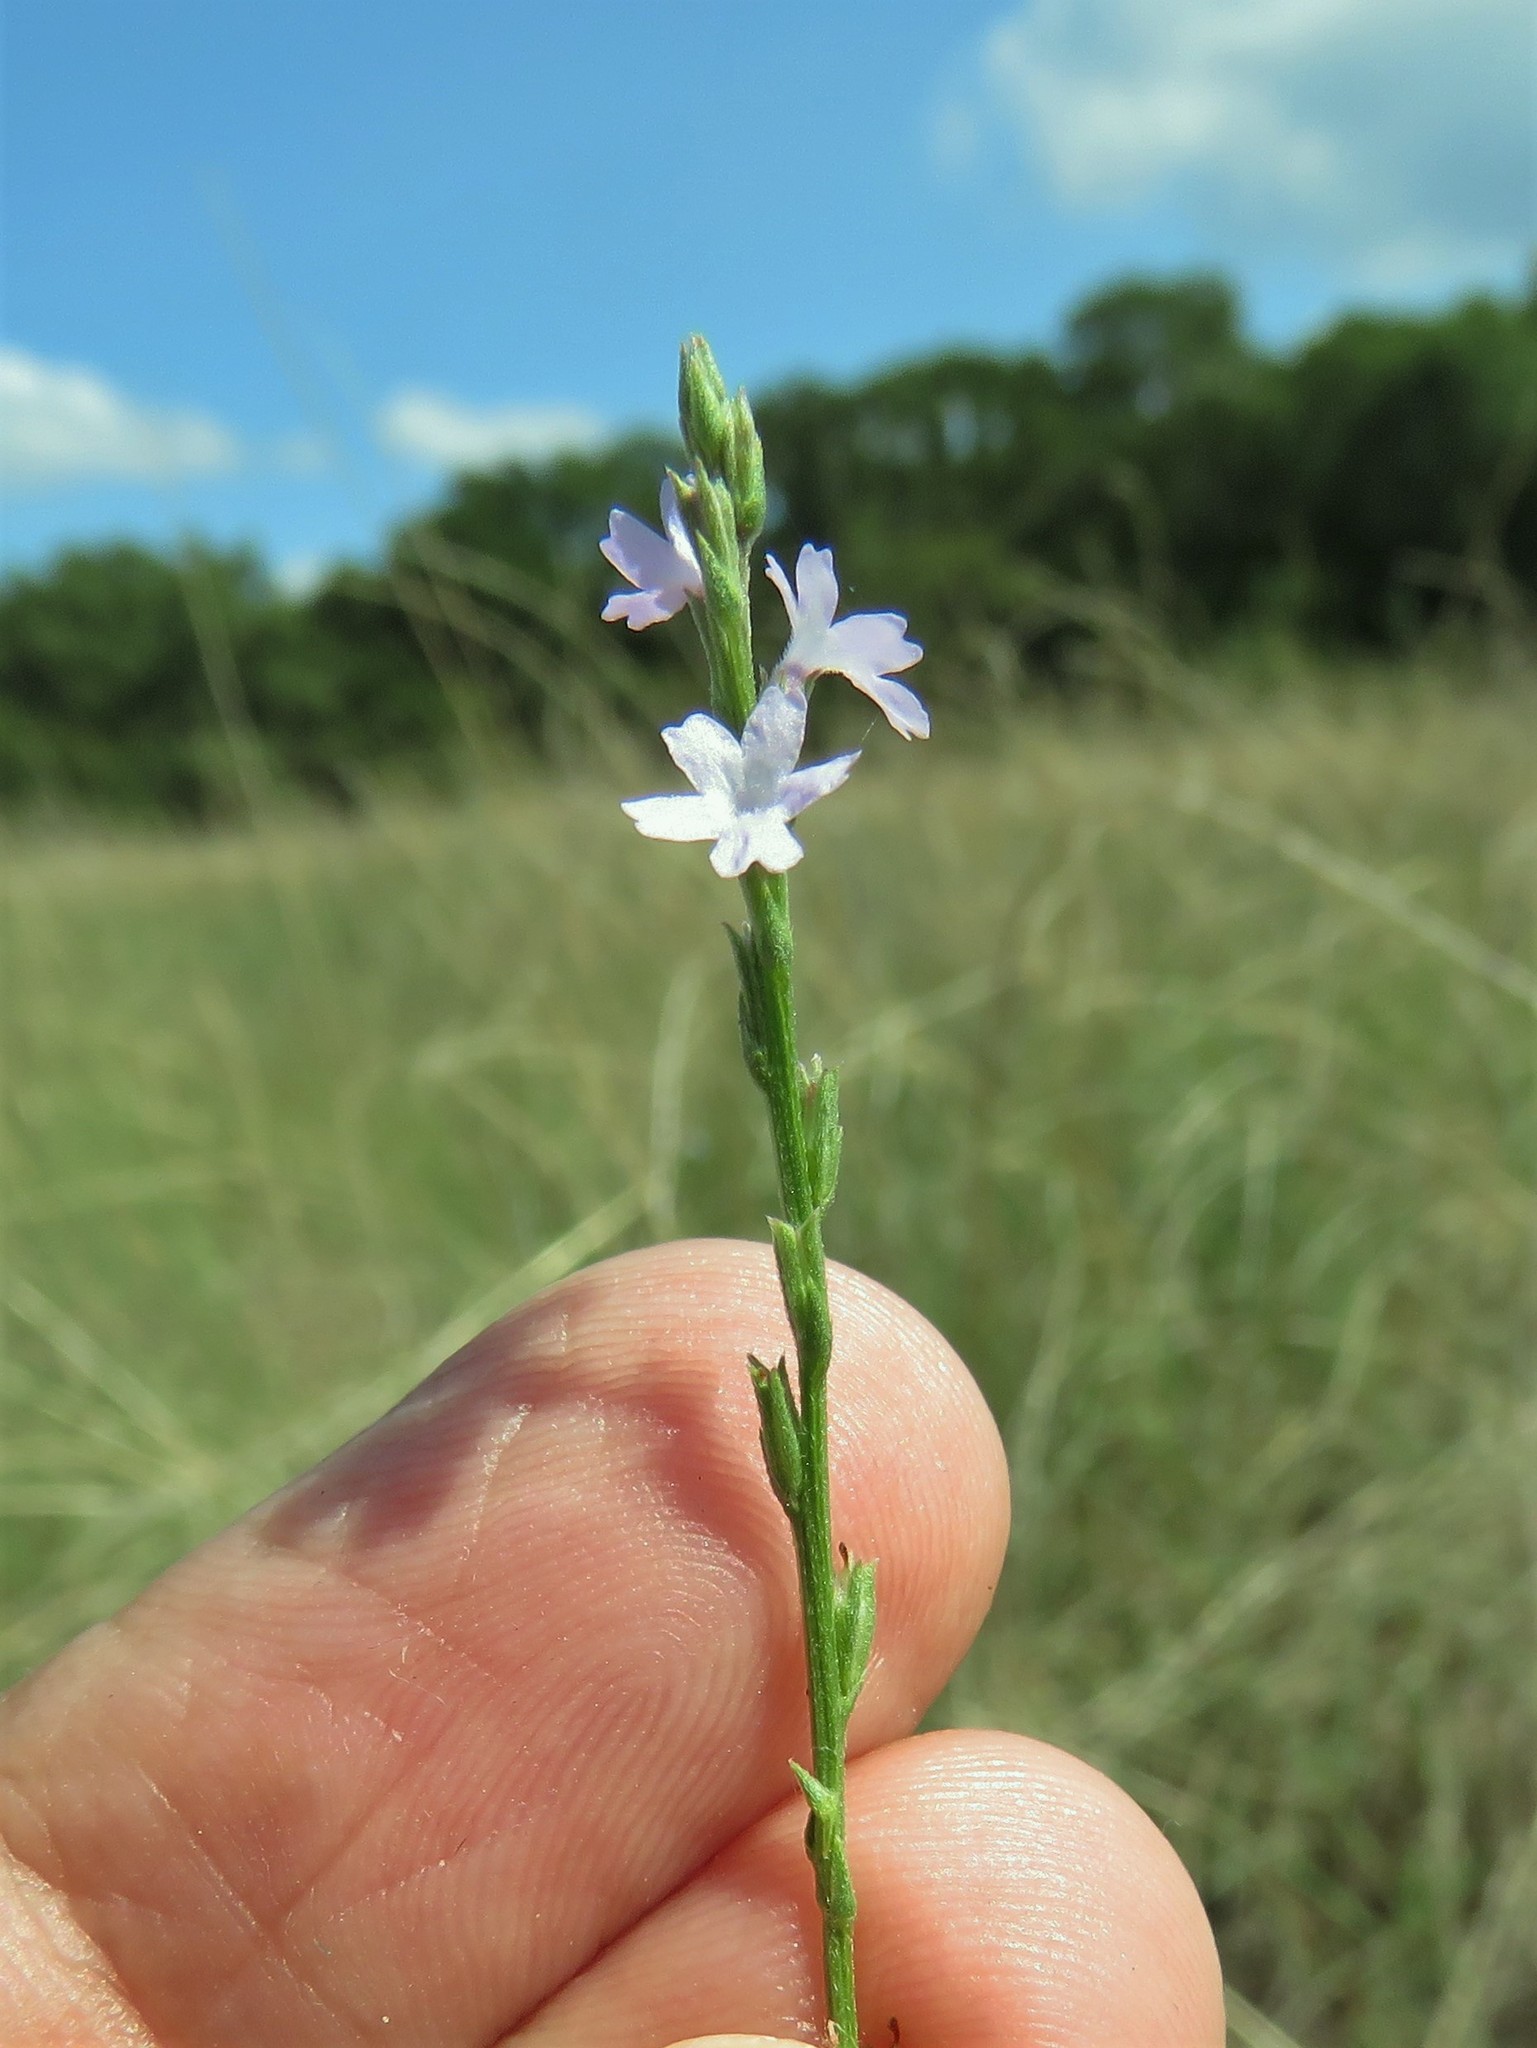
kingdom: Plantae
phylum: Tracheophyta
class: Magnoliopsida
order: Lamiales
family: Verbenaceae
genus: Verbena
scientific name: Verbena halei
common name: Texas vervain
